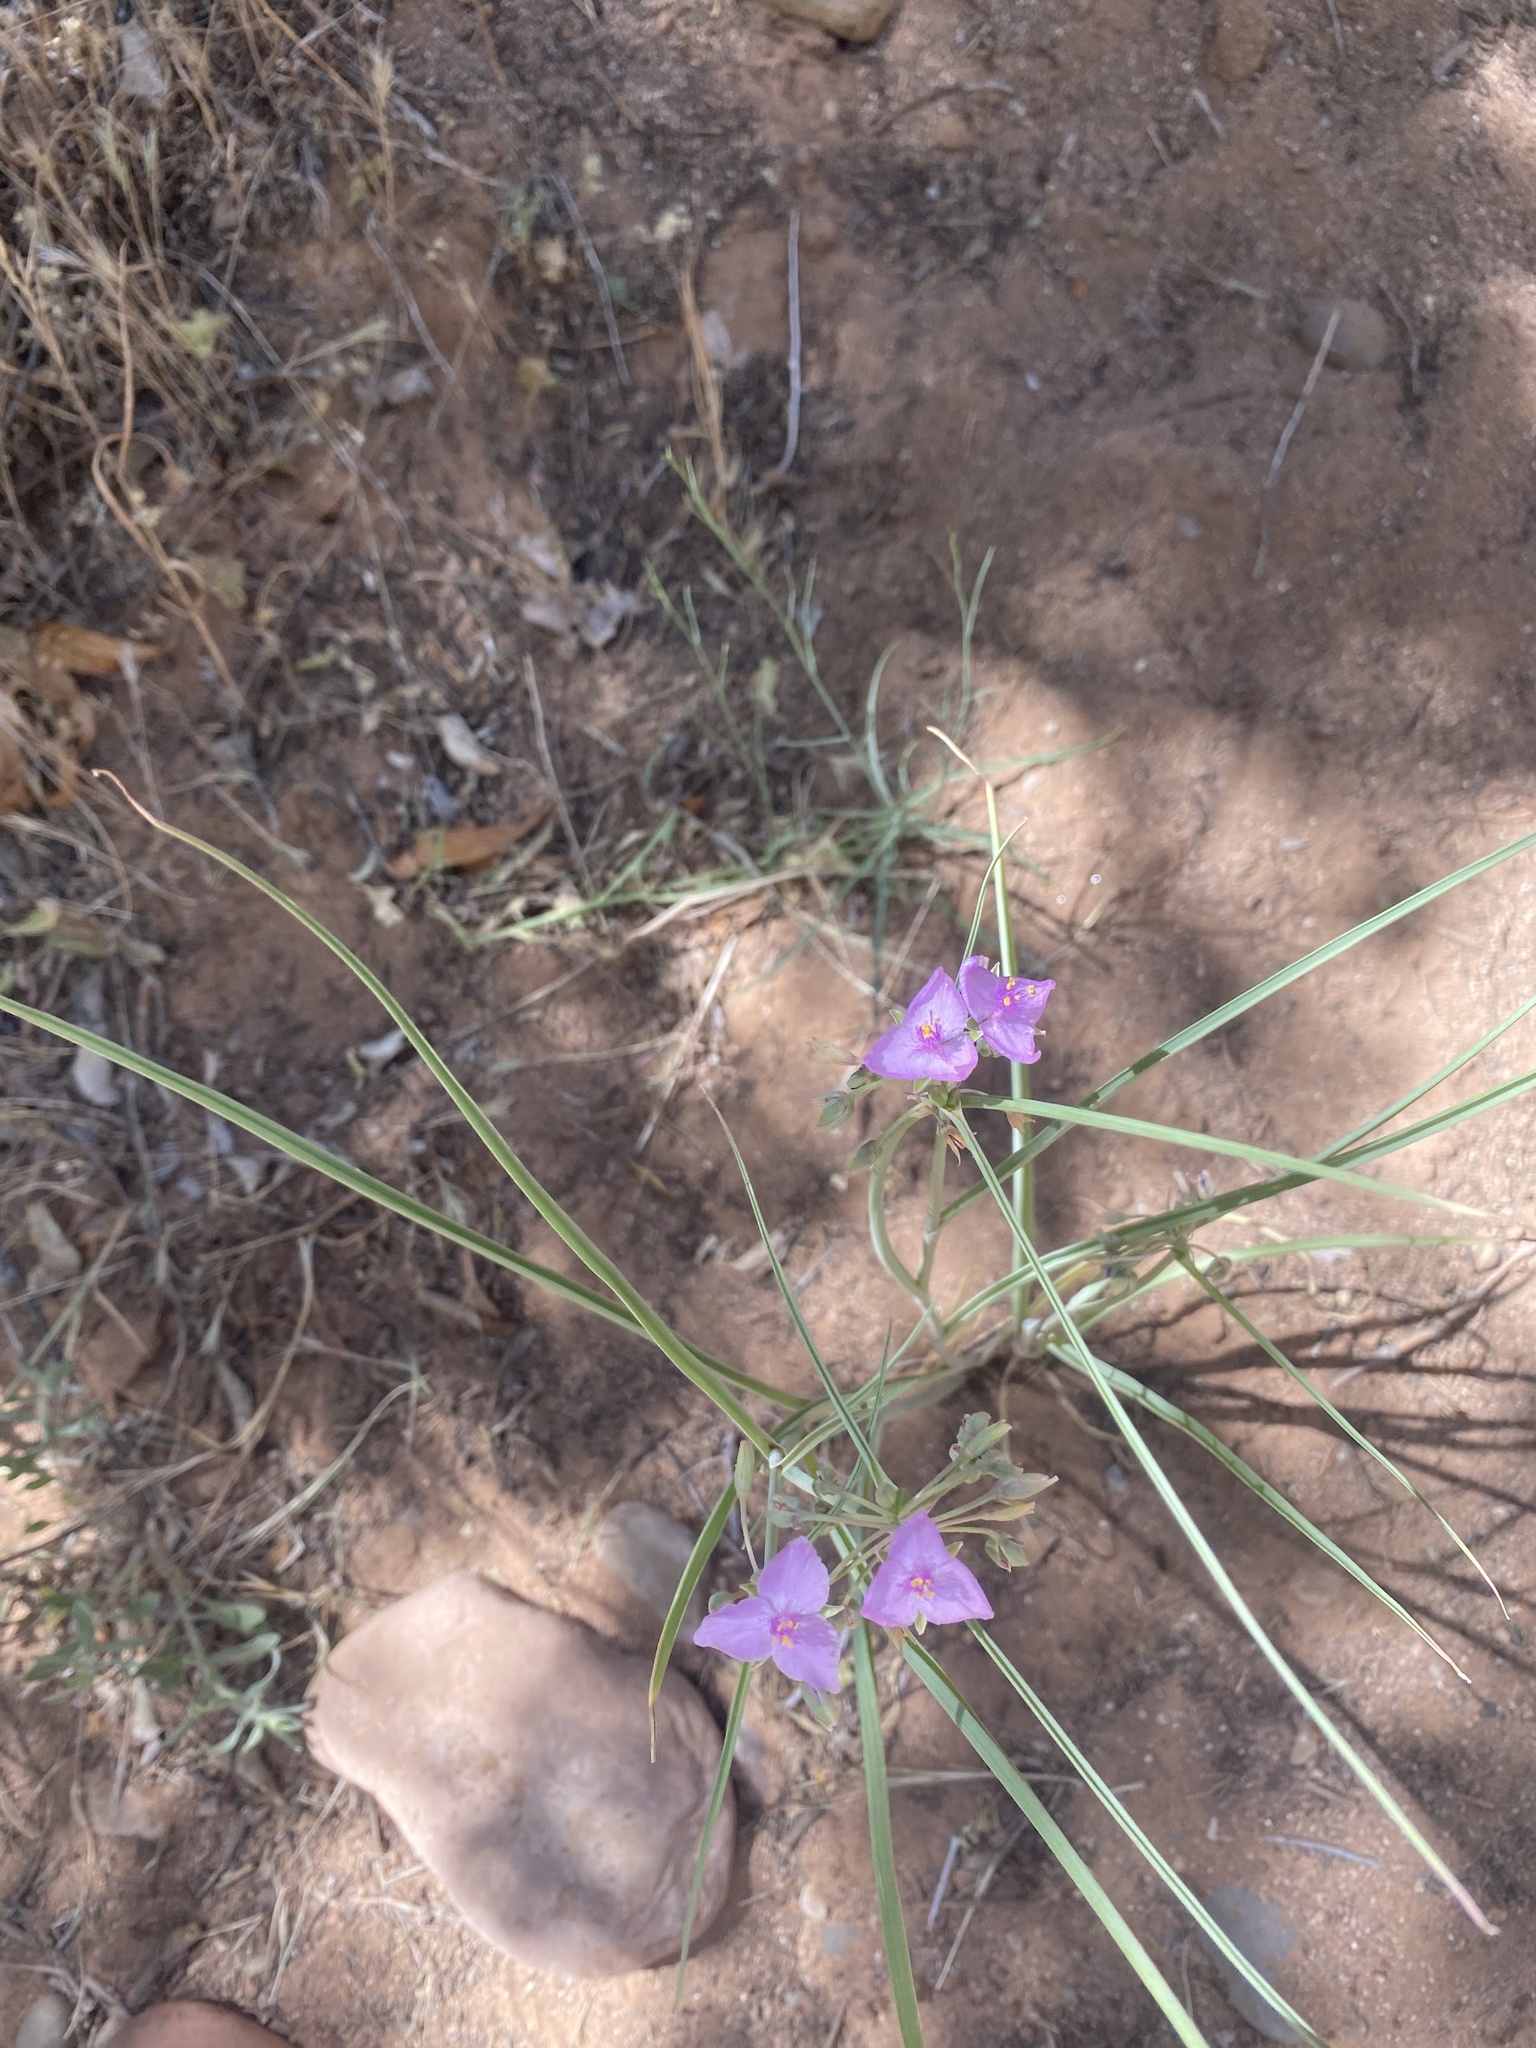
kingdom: Plantae
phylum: Tracheophyta
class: Liliopsida
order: Commelinales
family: Commelinaceae
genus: Tradescantia
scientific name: Tradescantia occidentalis
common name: Prairie spiderwort
